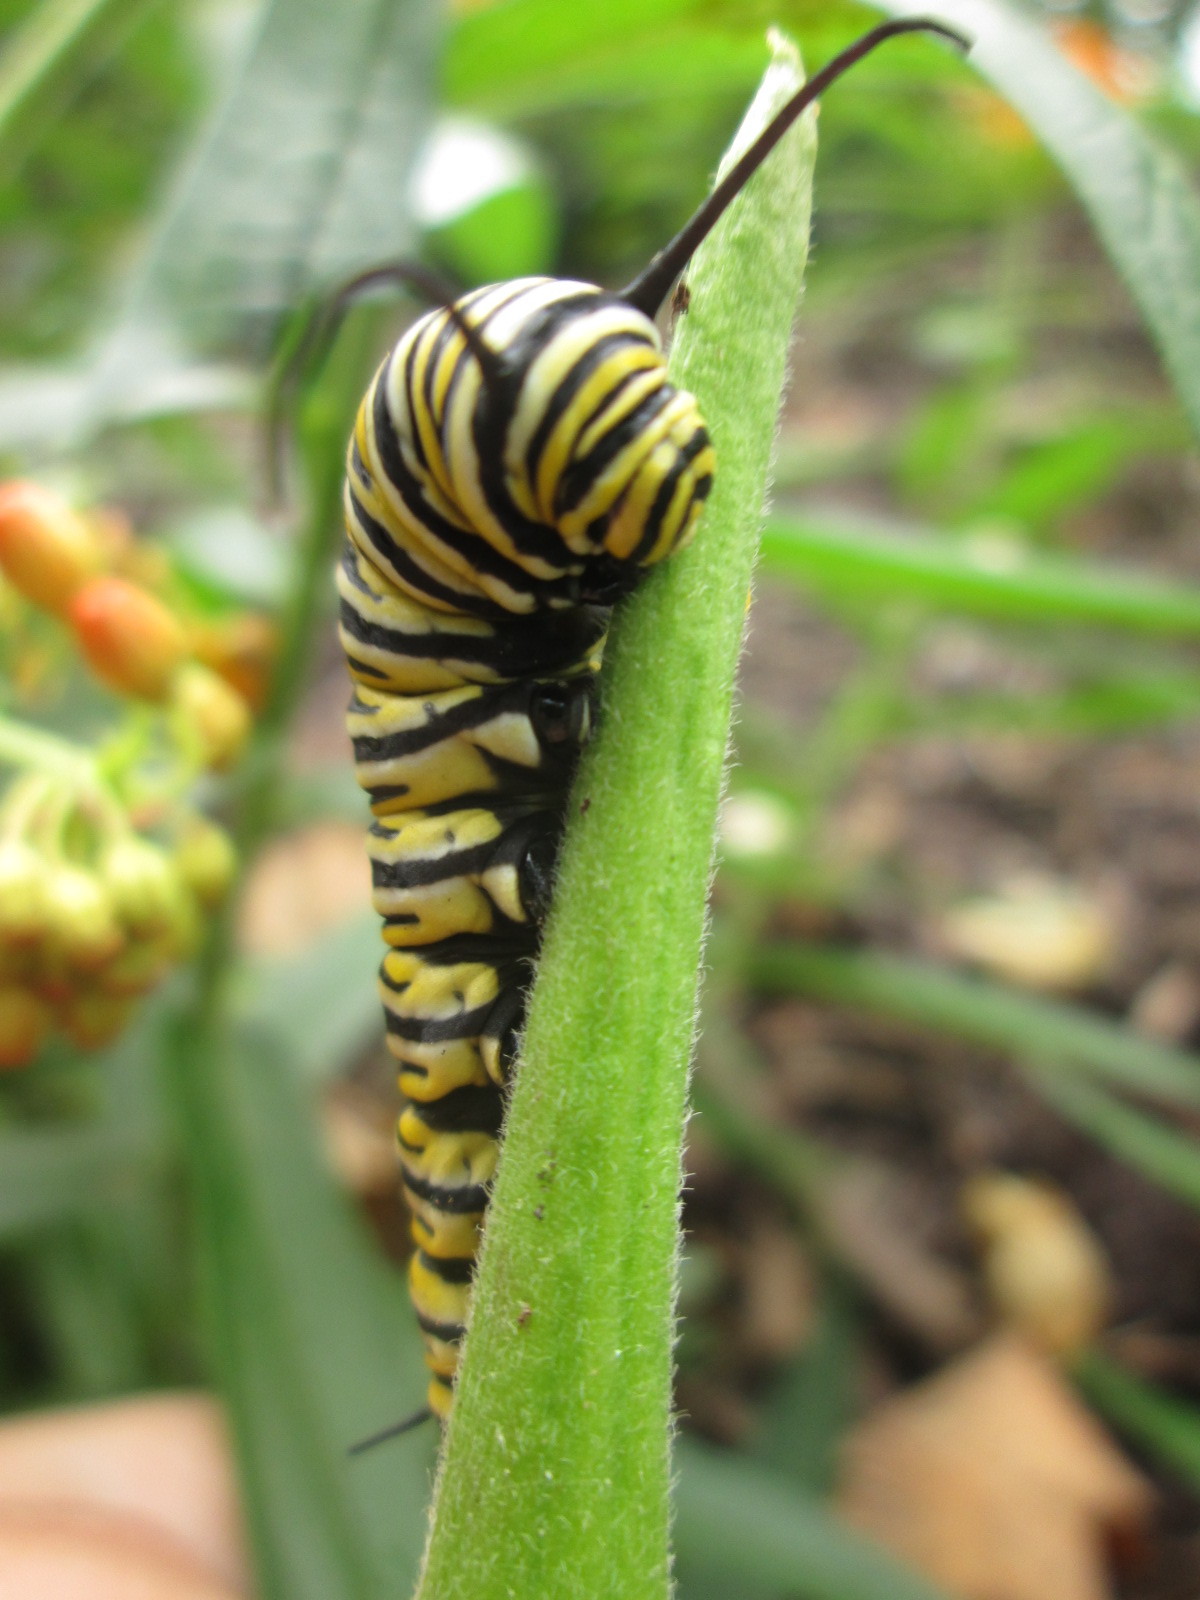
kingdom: Animalia
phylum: Arthropoda
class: Insecta
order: Lepidoptera
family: Nymphalidae
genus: Danaus
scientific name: Danaus plexippus
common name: Monarch
